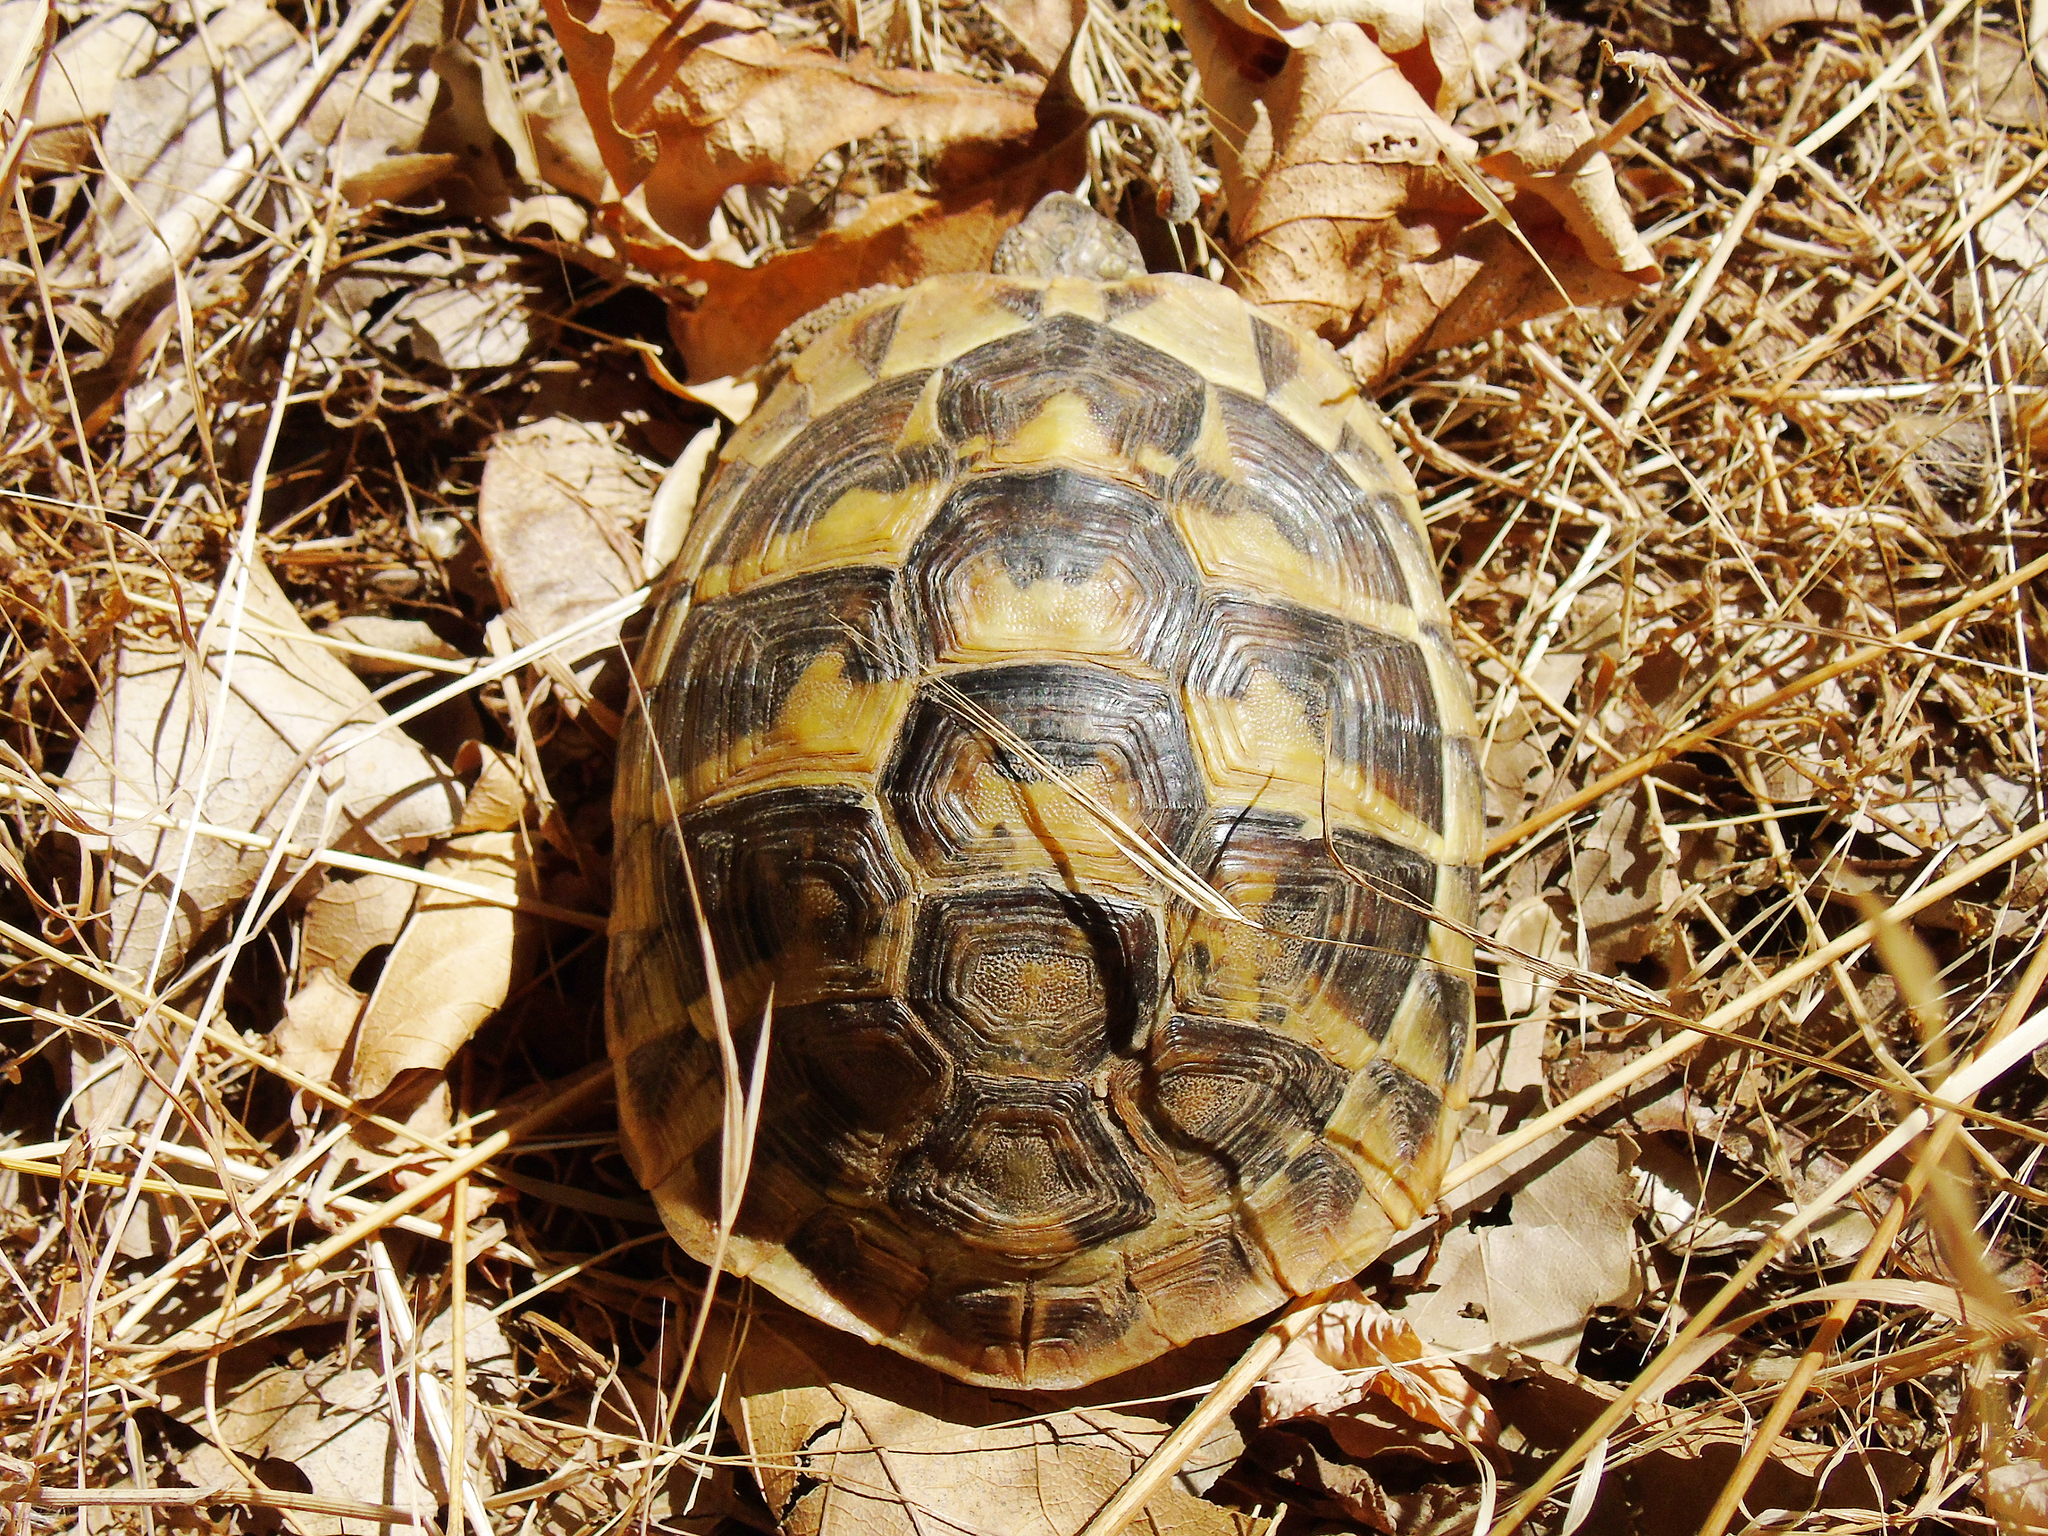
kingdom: Animalia
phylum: Chordata
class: Testudines
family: Testudinidae
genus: Testudo
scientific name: Testudo hermanni
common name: Hermann's tortoise
